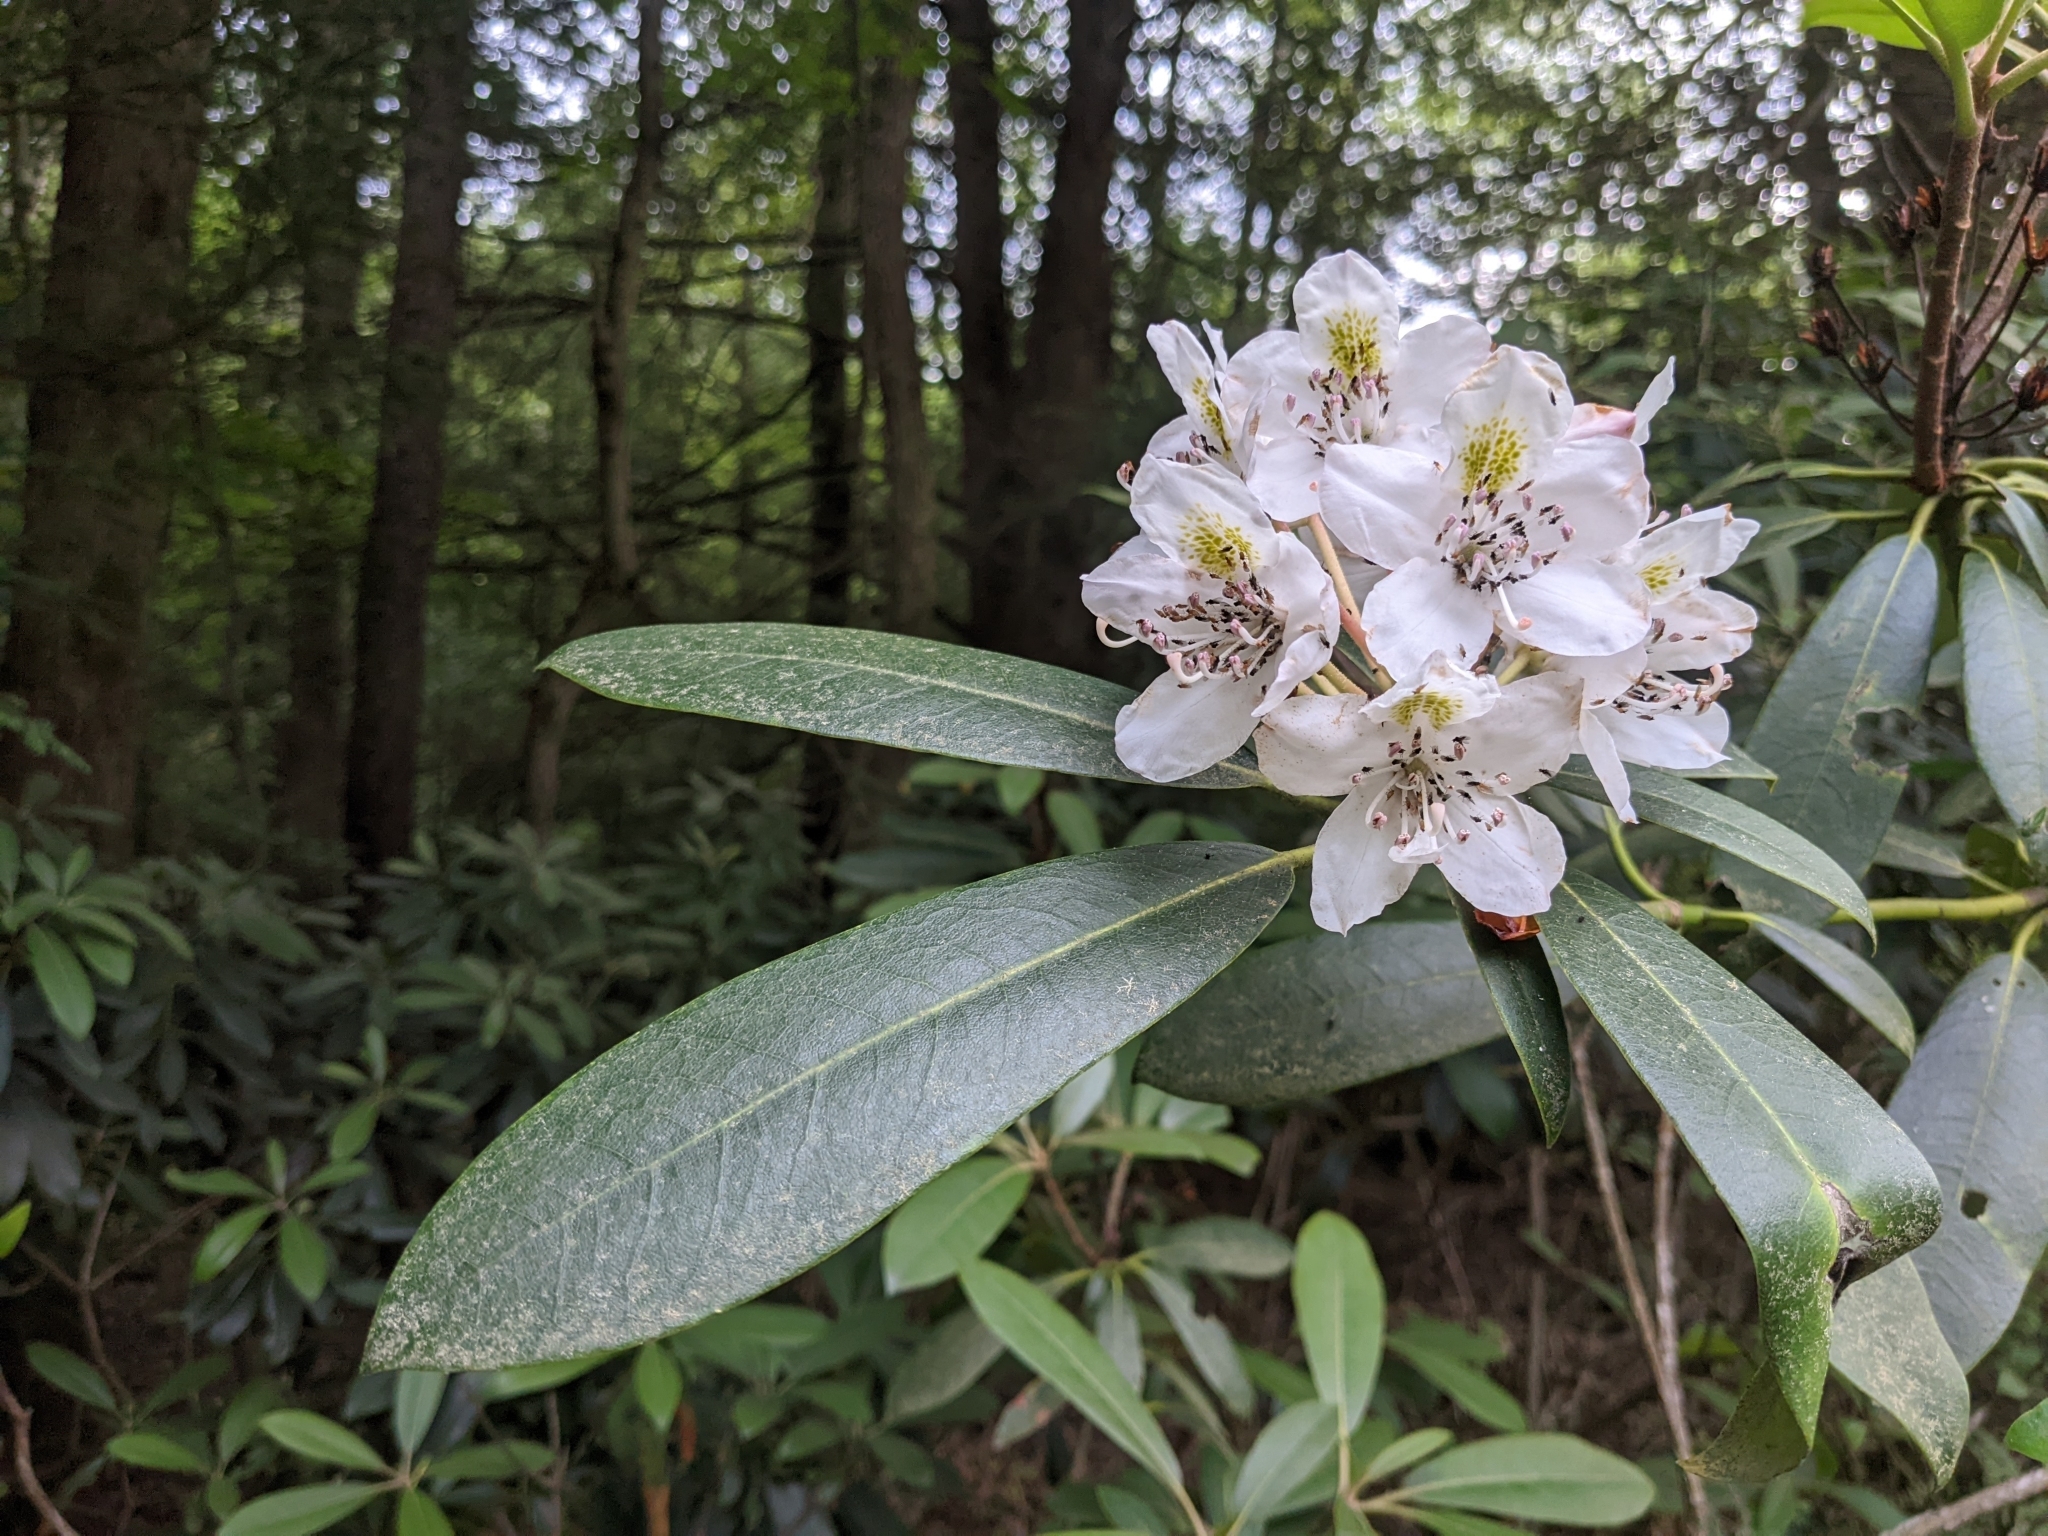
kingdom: Plantae
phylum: Tracheophyta
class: Magnoliopsida
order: Ericales
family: Ericaceae
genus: Rhododendron
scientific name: Rhododendron maximum
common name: Great rhododendron
